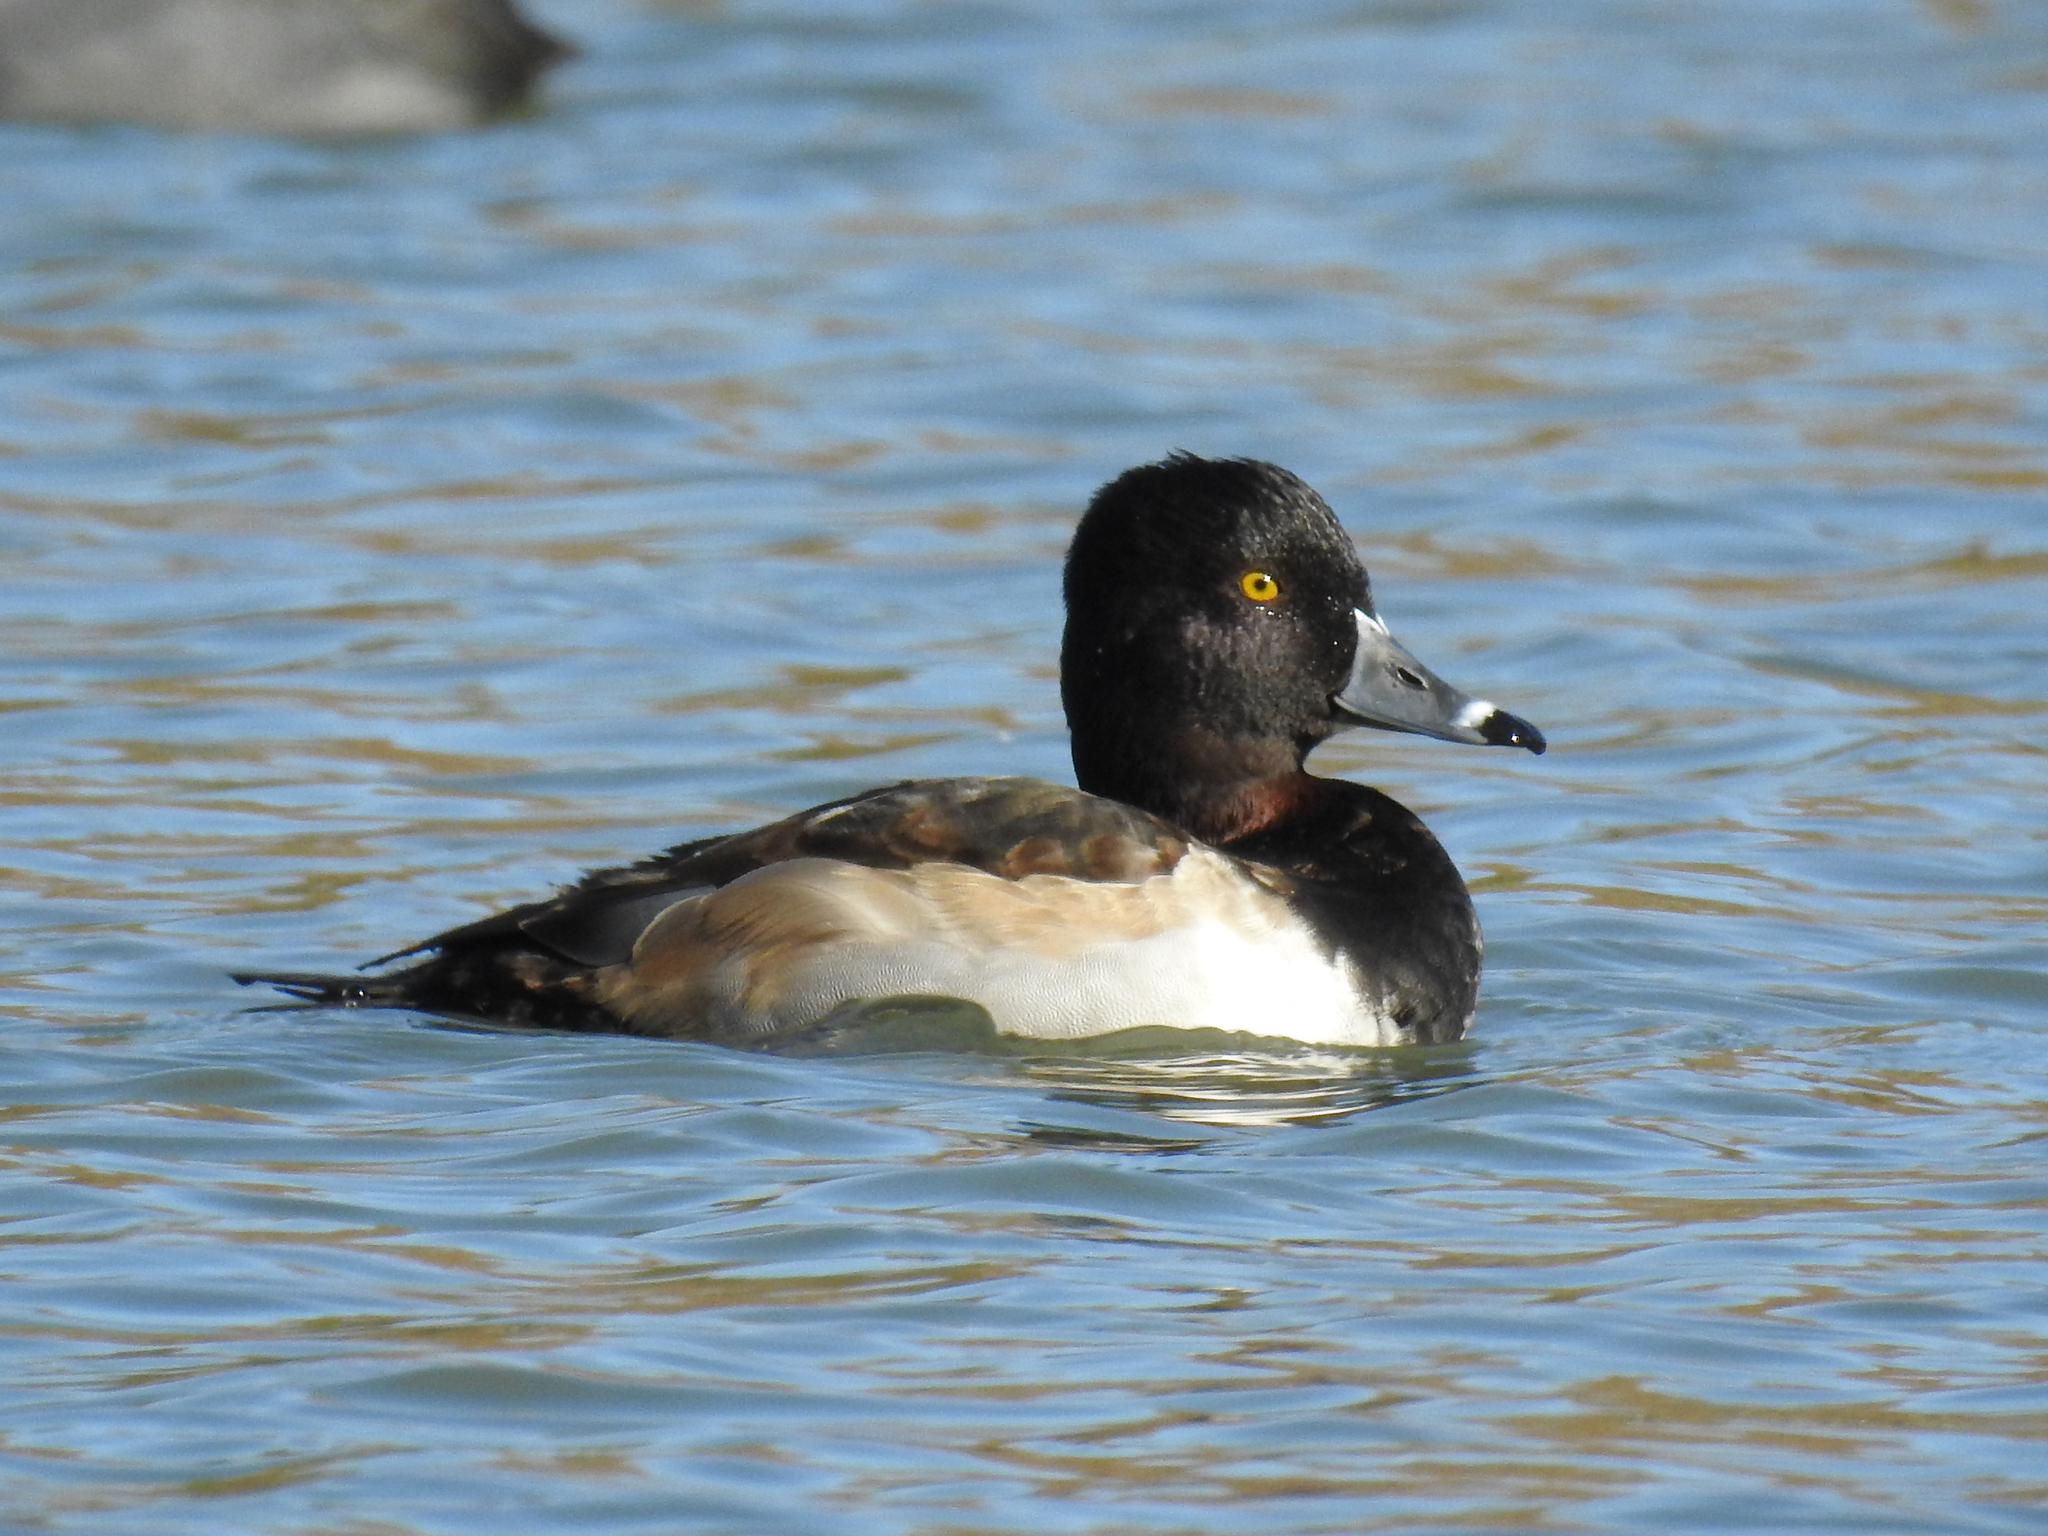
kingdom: Animalia
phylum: Chordata
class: Aves
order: Anseriformes
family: Anatidae
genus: Aythya
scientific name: Aythya collaris
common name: Ring-necked duck
